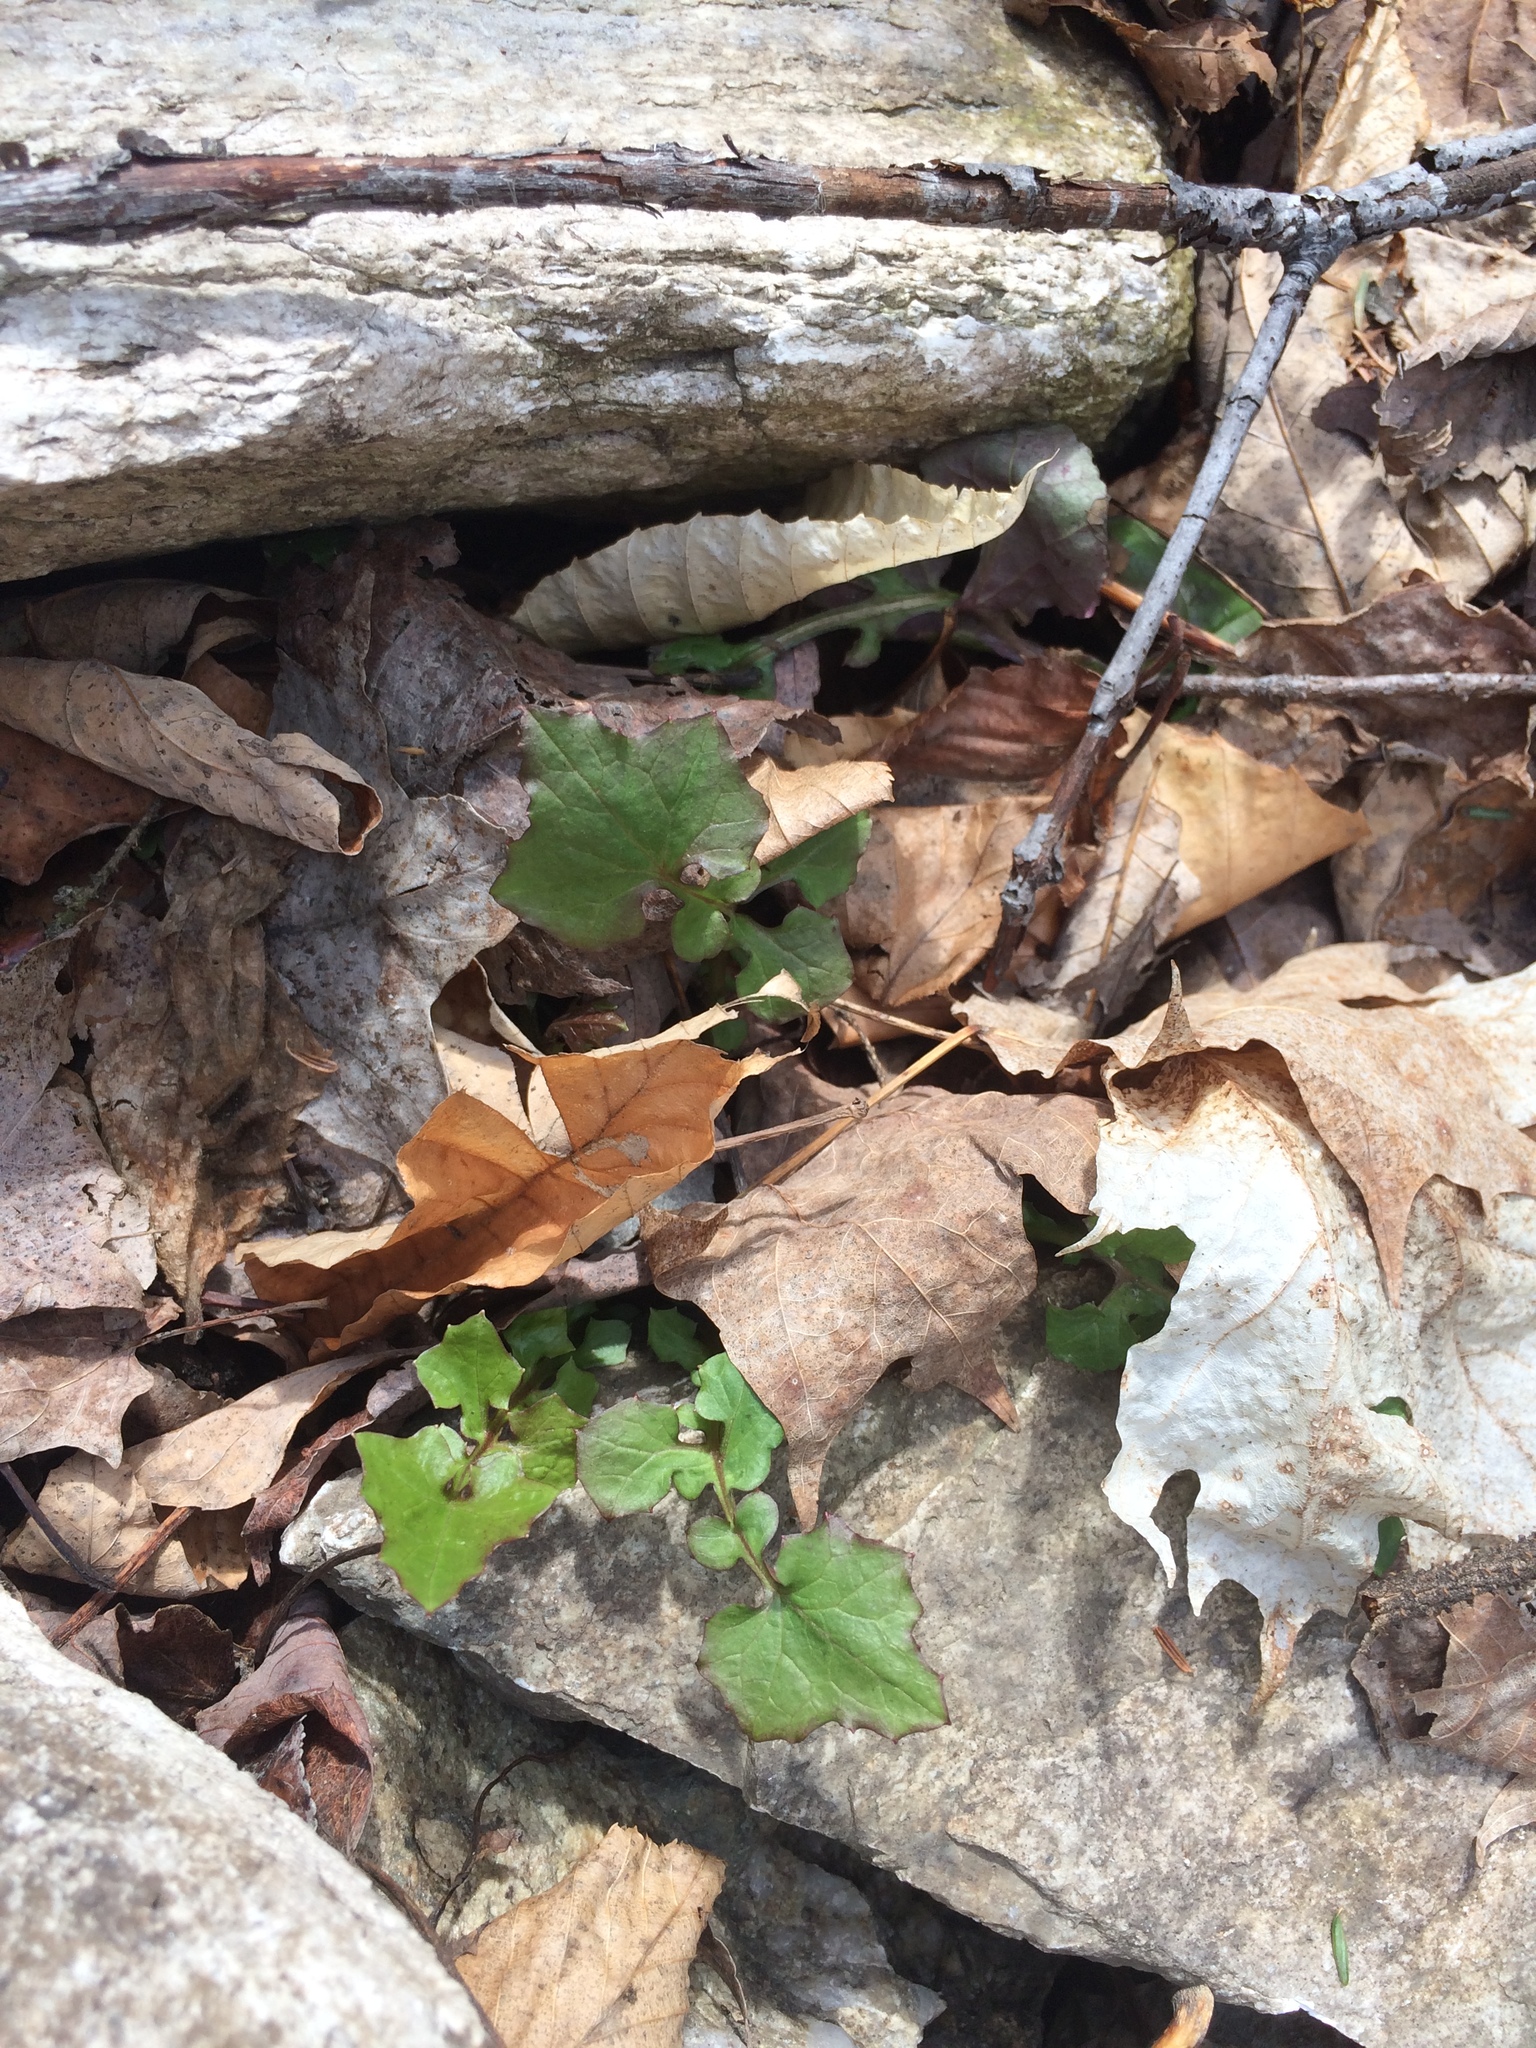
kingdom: Plantae
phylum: Tracheophyta
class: Magnoliopsida
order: Asterales
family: Asteraceae
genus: Mycelis
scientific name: Mycelis muralis
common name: Wall lettuce
